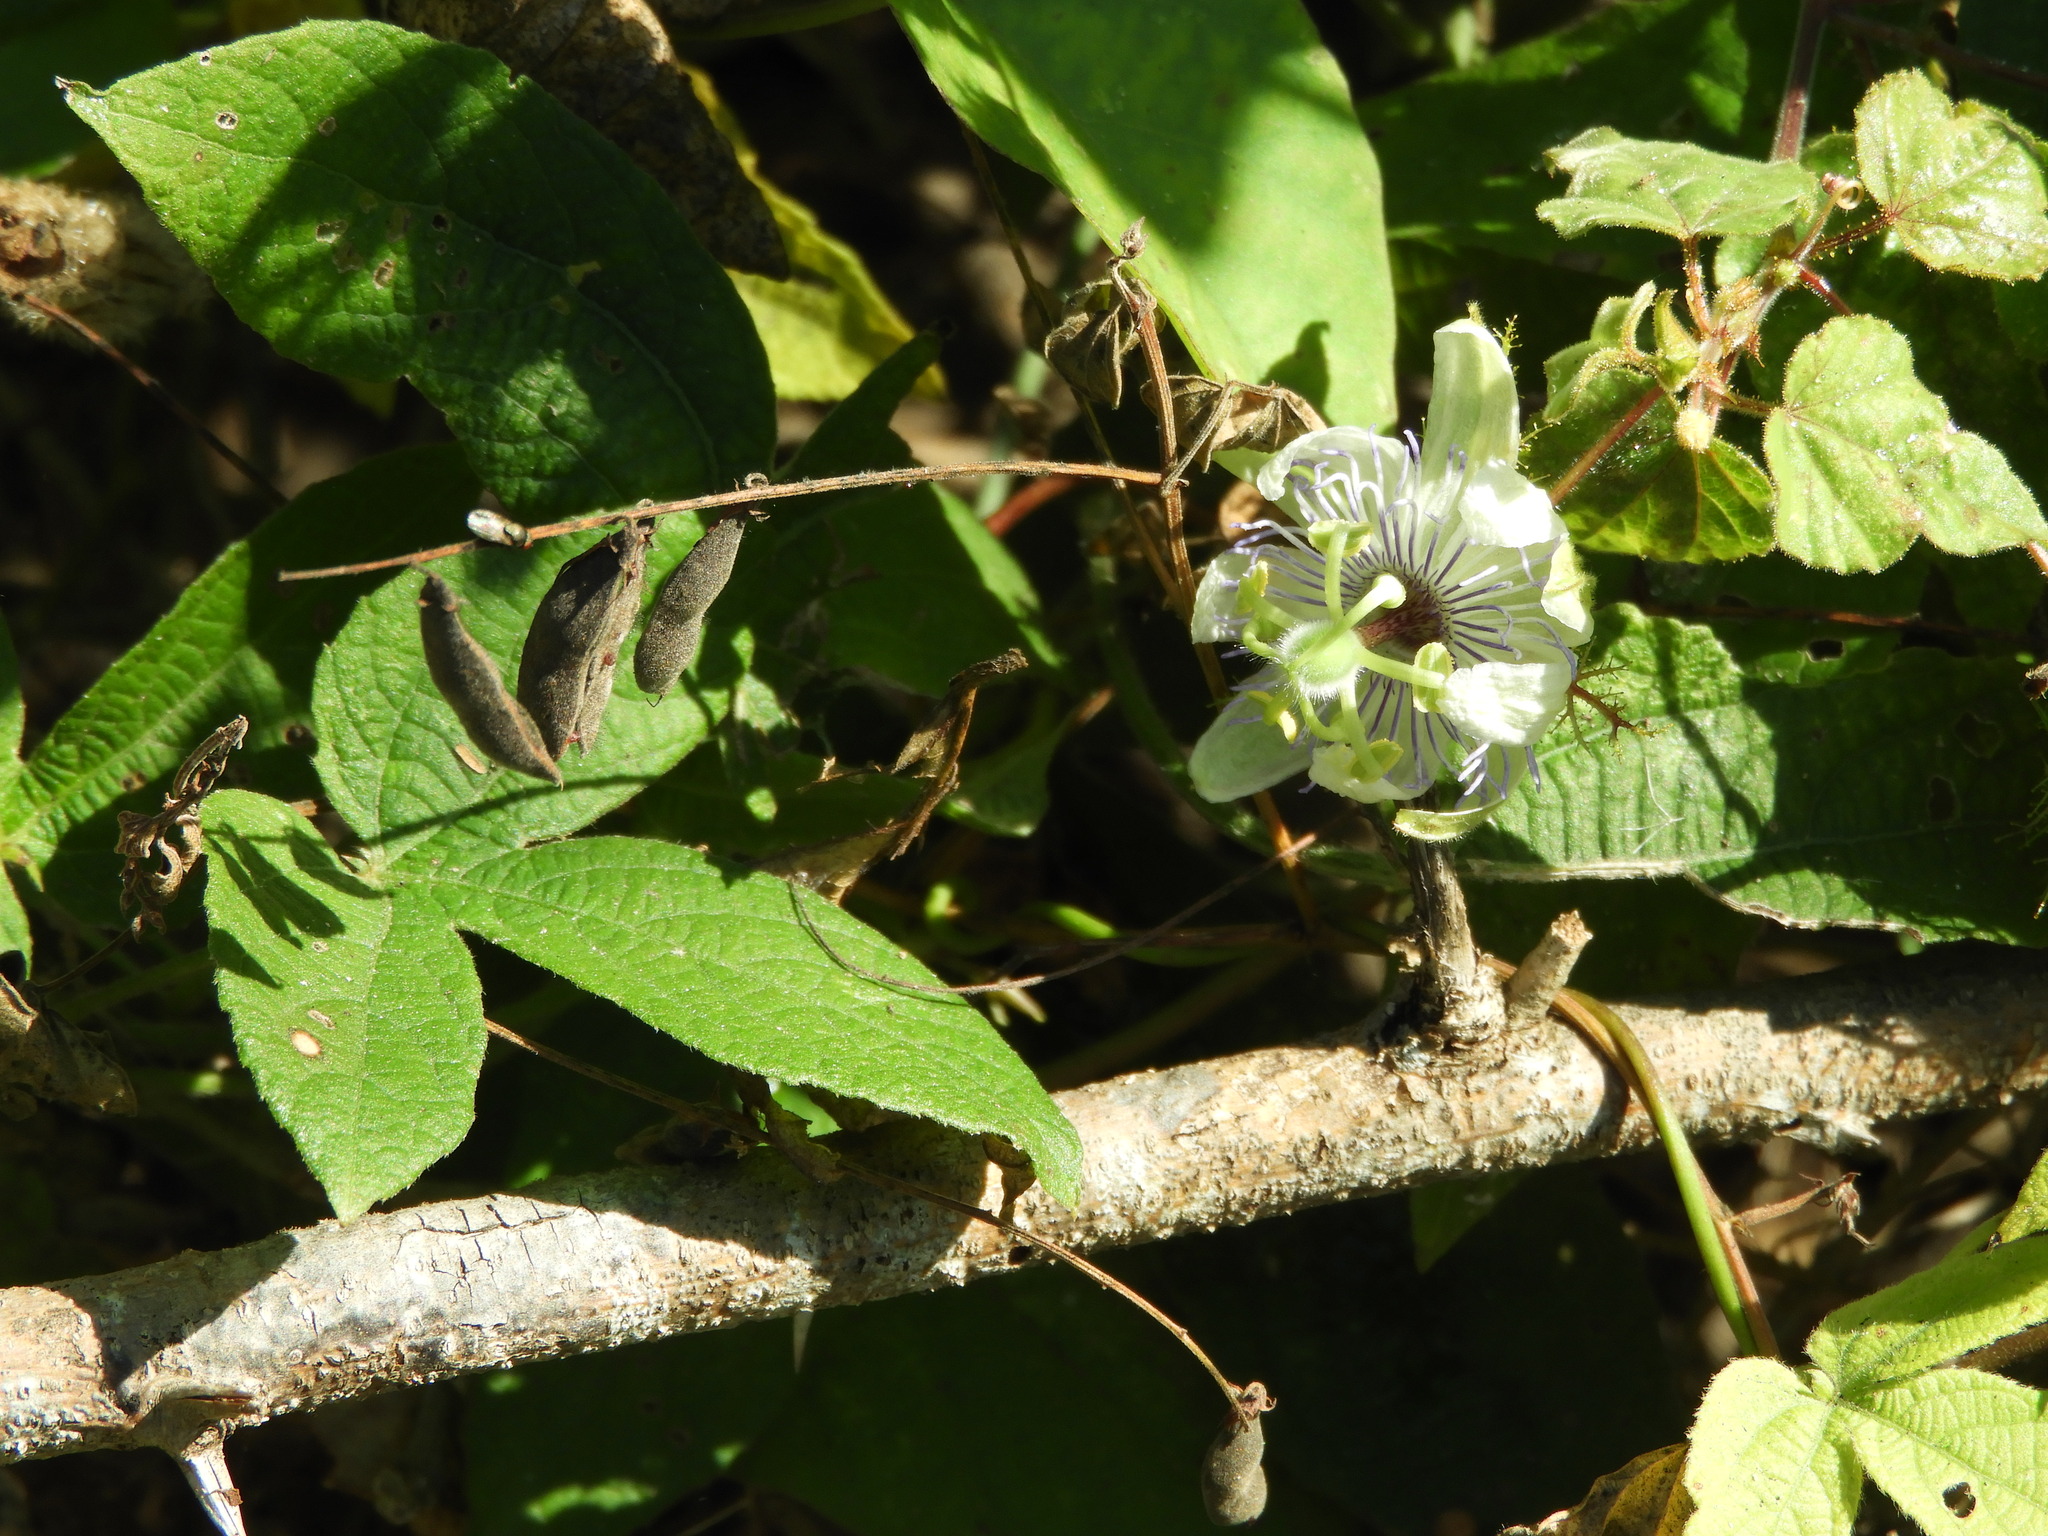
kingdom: Plantae
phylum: Tracheophyta
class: Magnoliopsida
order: Malpighiales
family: Passifloraceae
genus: Passiflora
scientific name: Passiflora foetida
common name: Fetid passionflower
